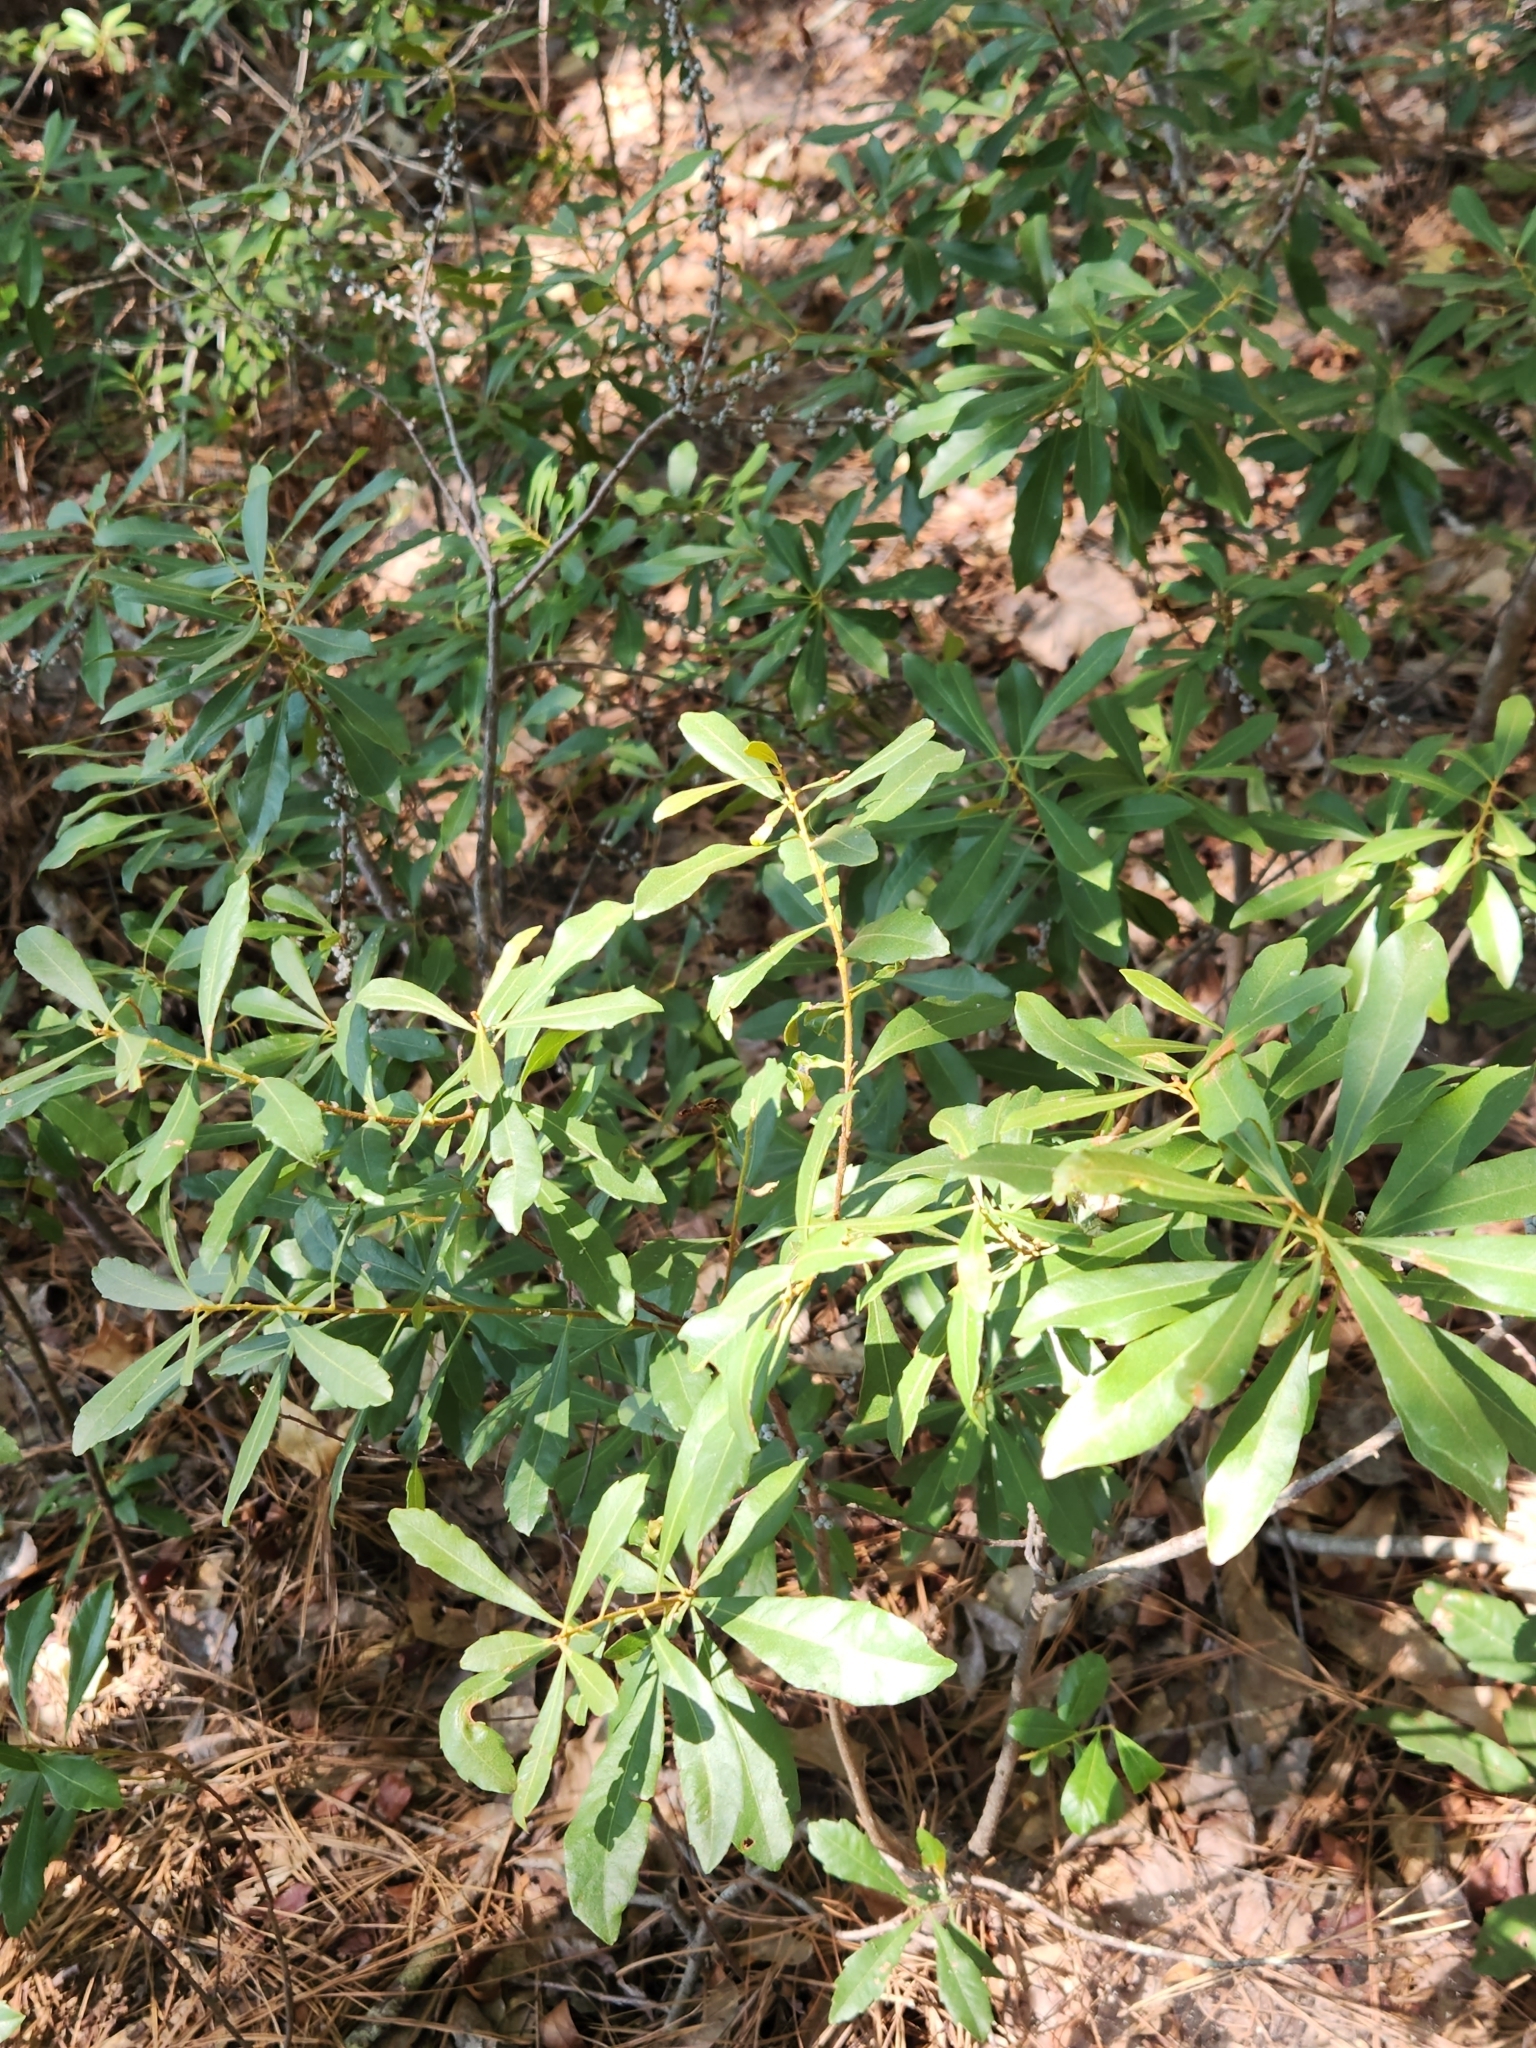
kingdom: Plantae
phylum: Tracheophyta
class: Magnoliopsida
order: Fagales
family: Myricaceae
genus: Morella
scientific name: Morella cerifera
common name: Wax myrtle
